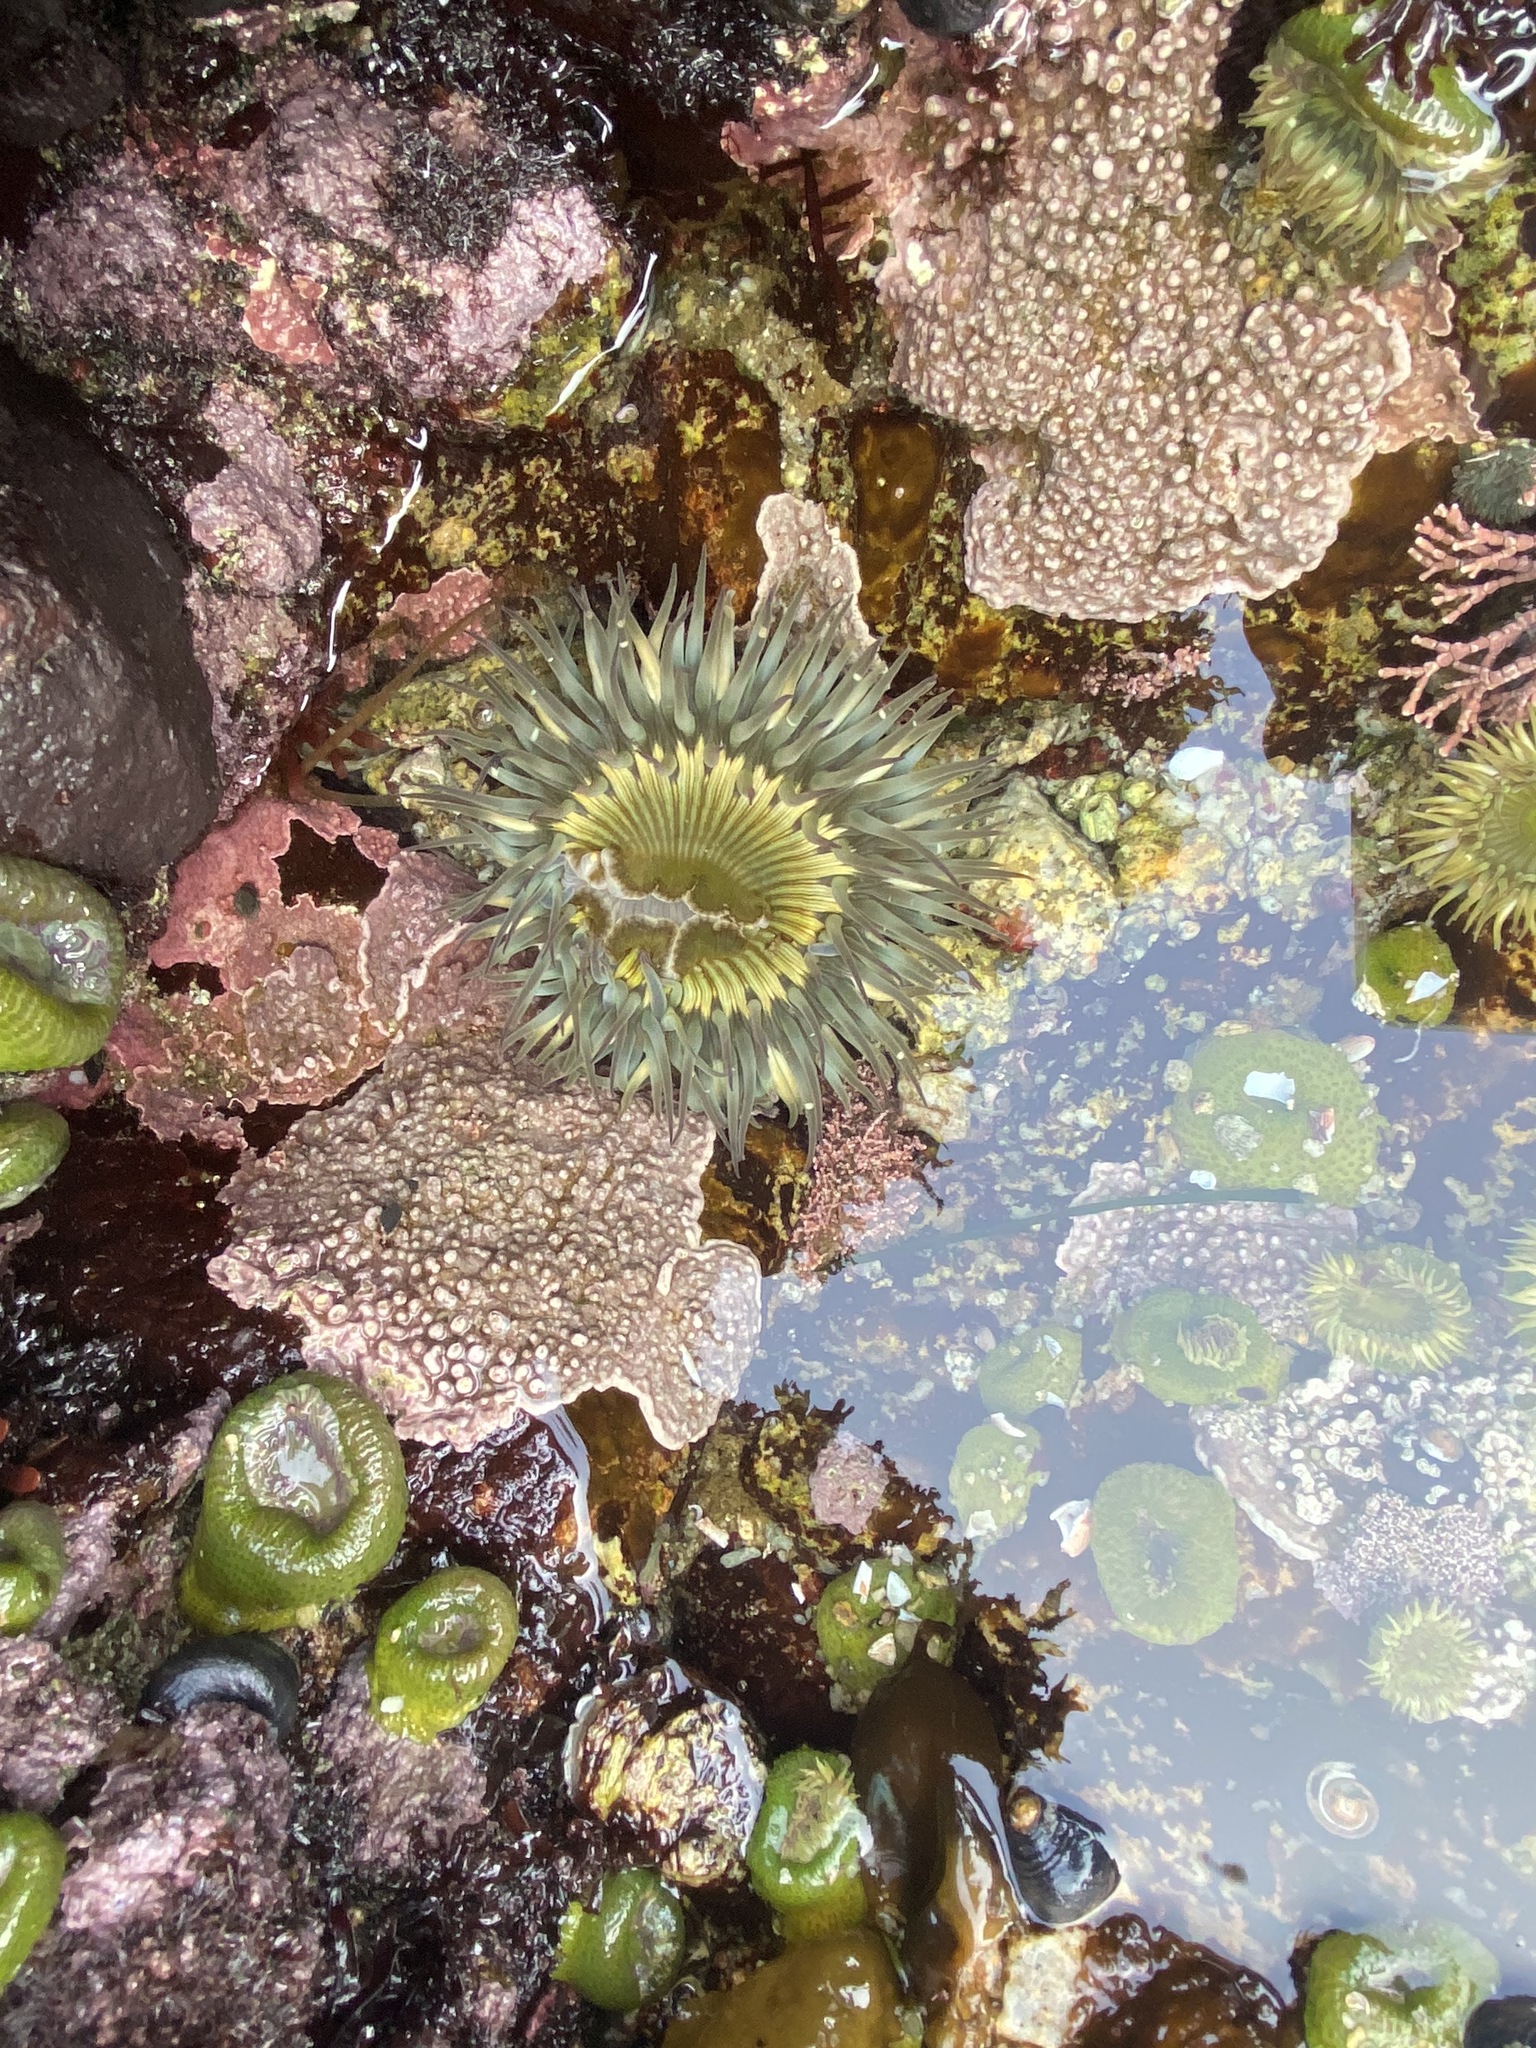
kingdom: Animalia
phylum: Cnidaria
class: Anthozoa
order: Actiniaria
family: Actiniidae
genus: Anthopleura
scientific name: Anthopleura sola
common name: Sun anemone
